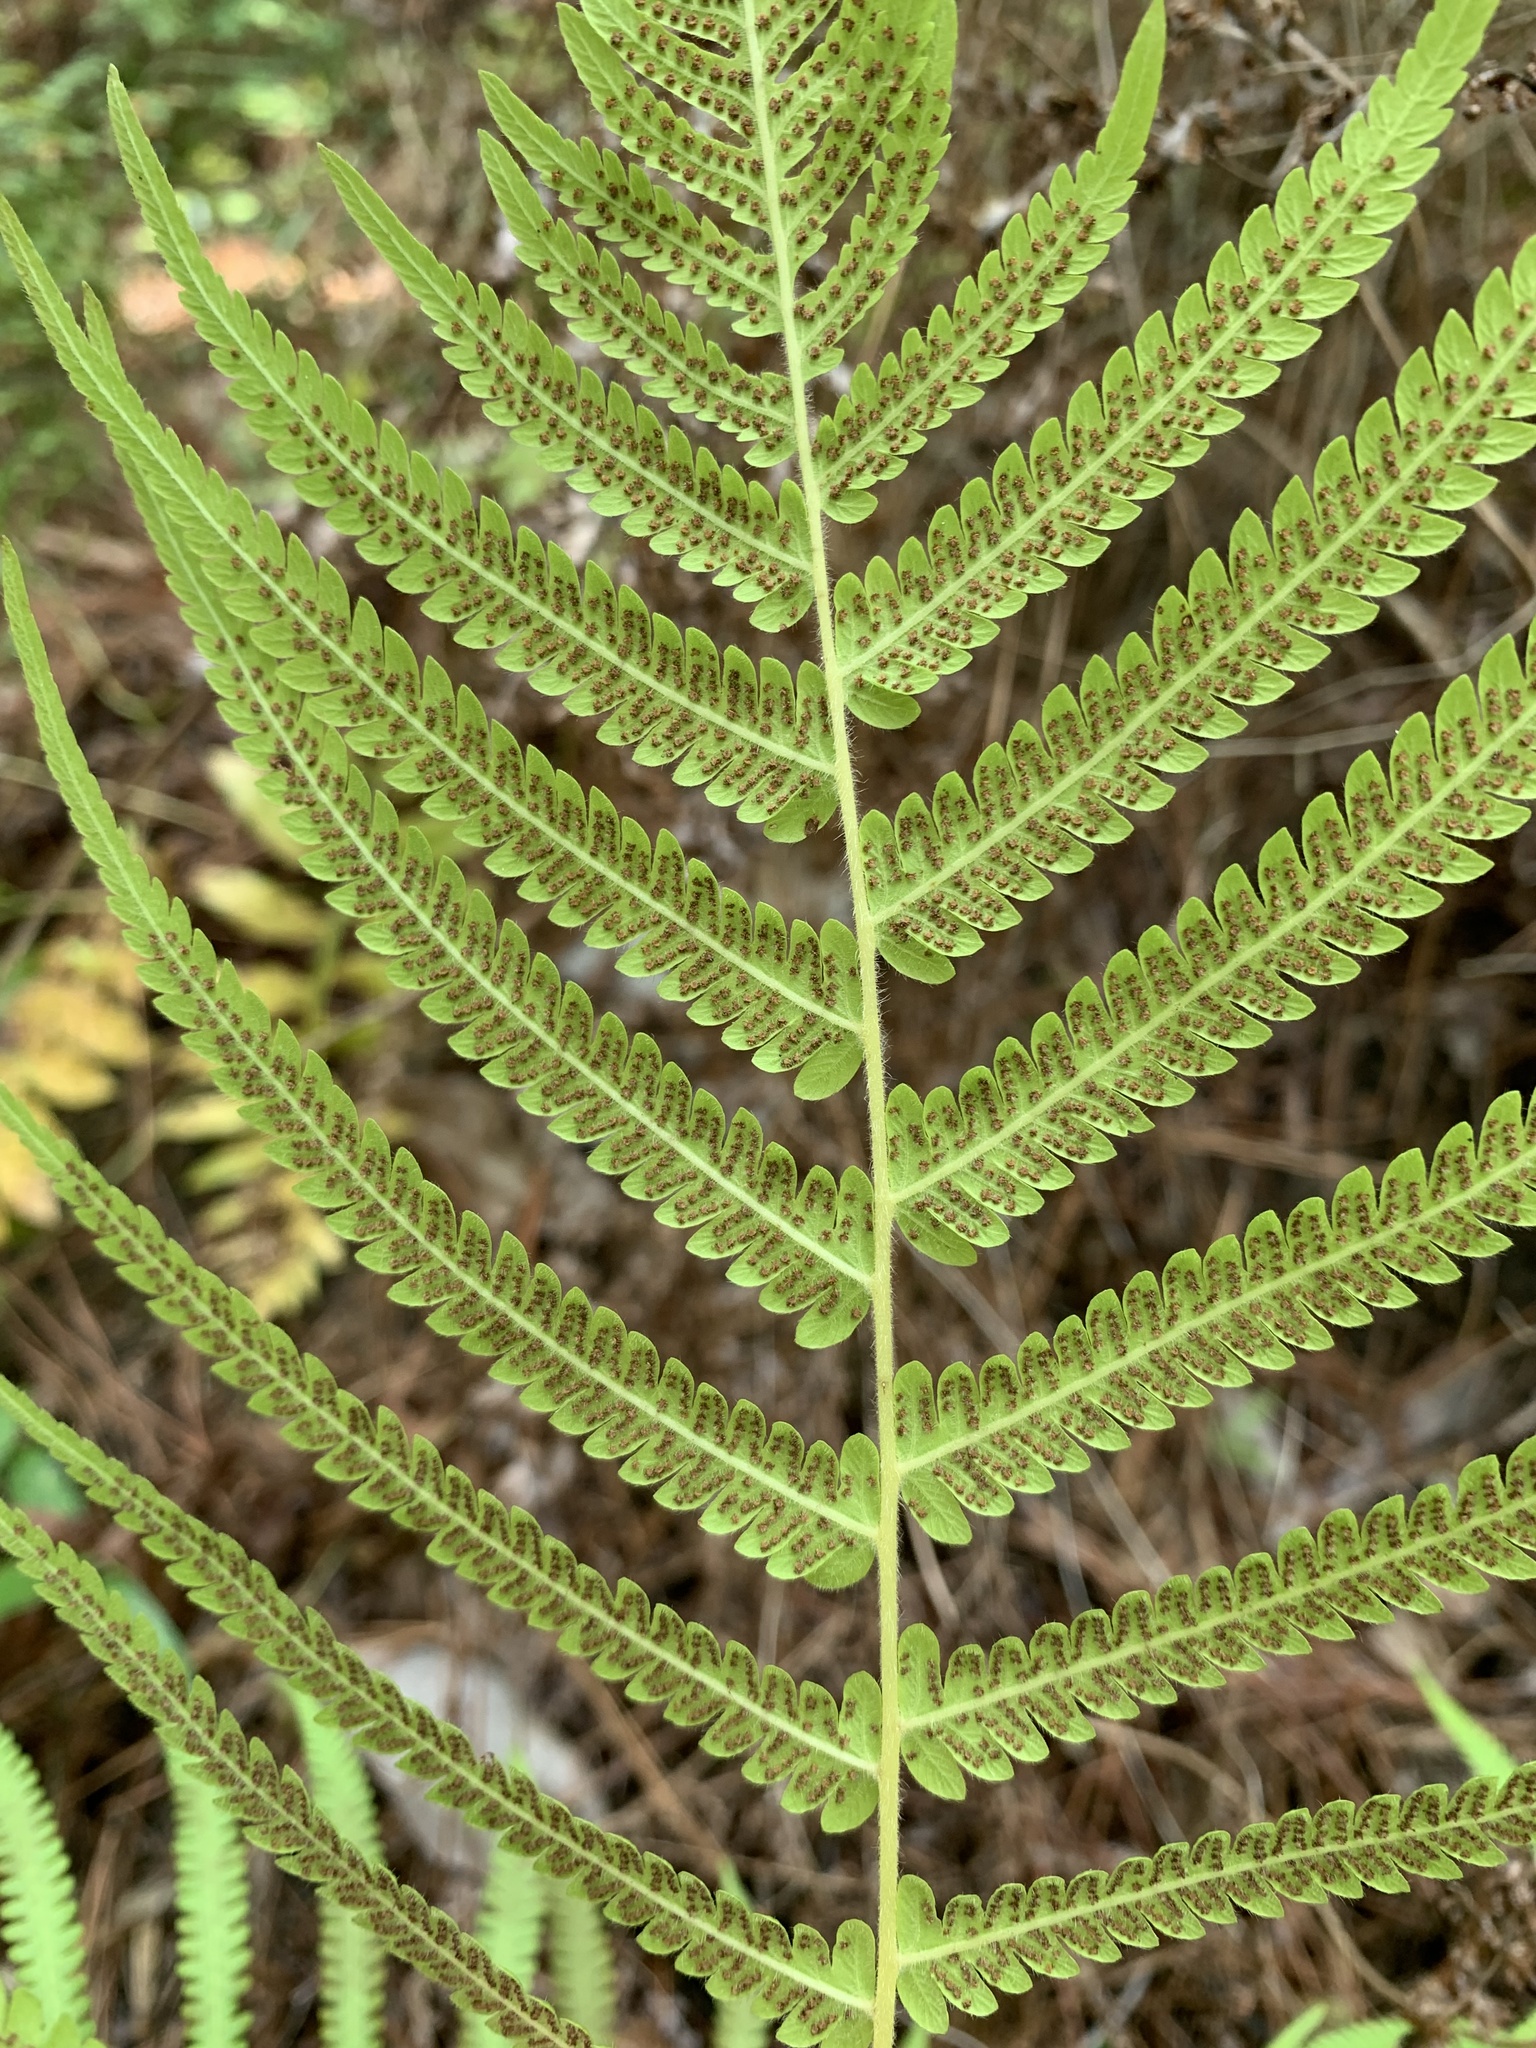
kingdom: Plantae
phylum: Tracheophyta
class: Polypodiopsida
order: Polypodiales
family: Thelypteridaceae
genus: Pelazoneuron
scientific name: Pelazoneuron kunthii
